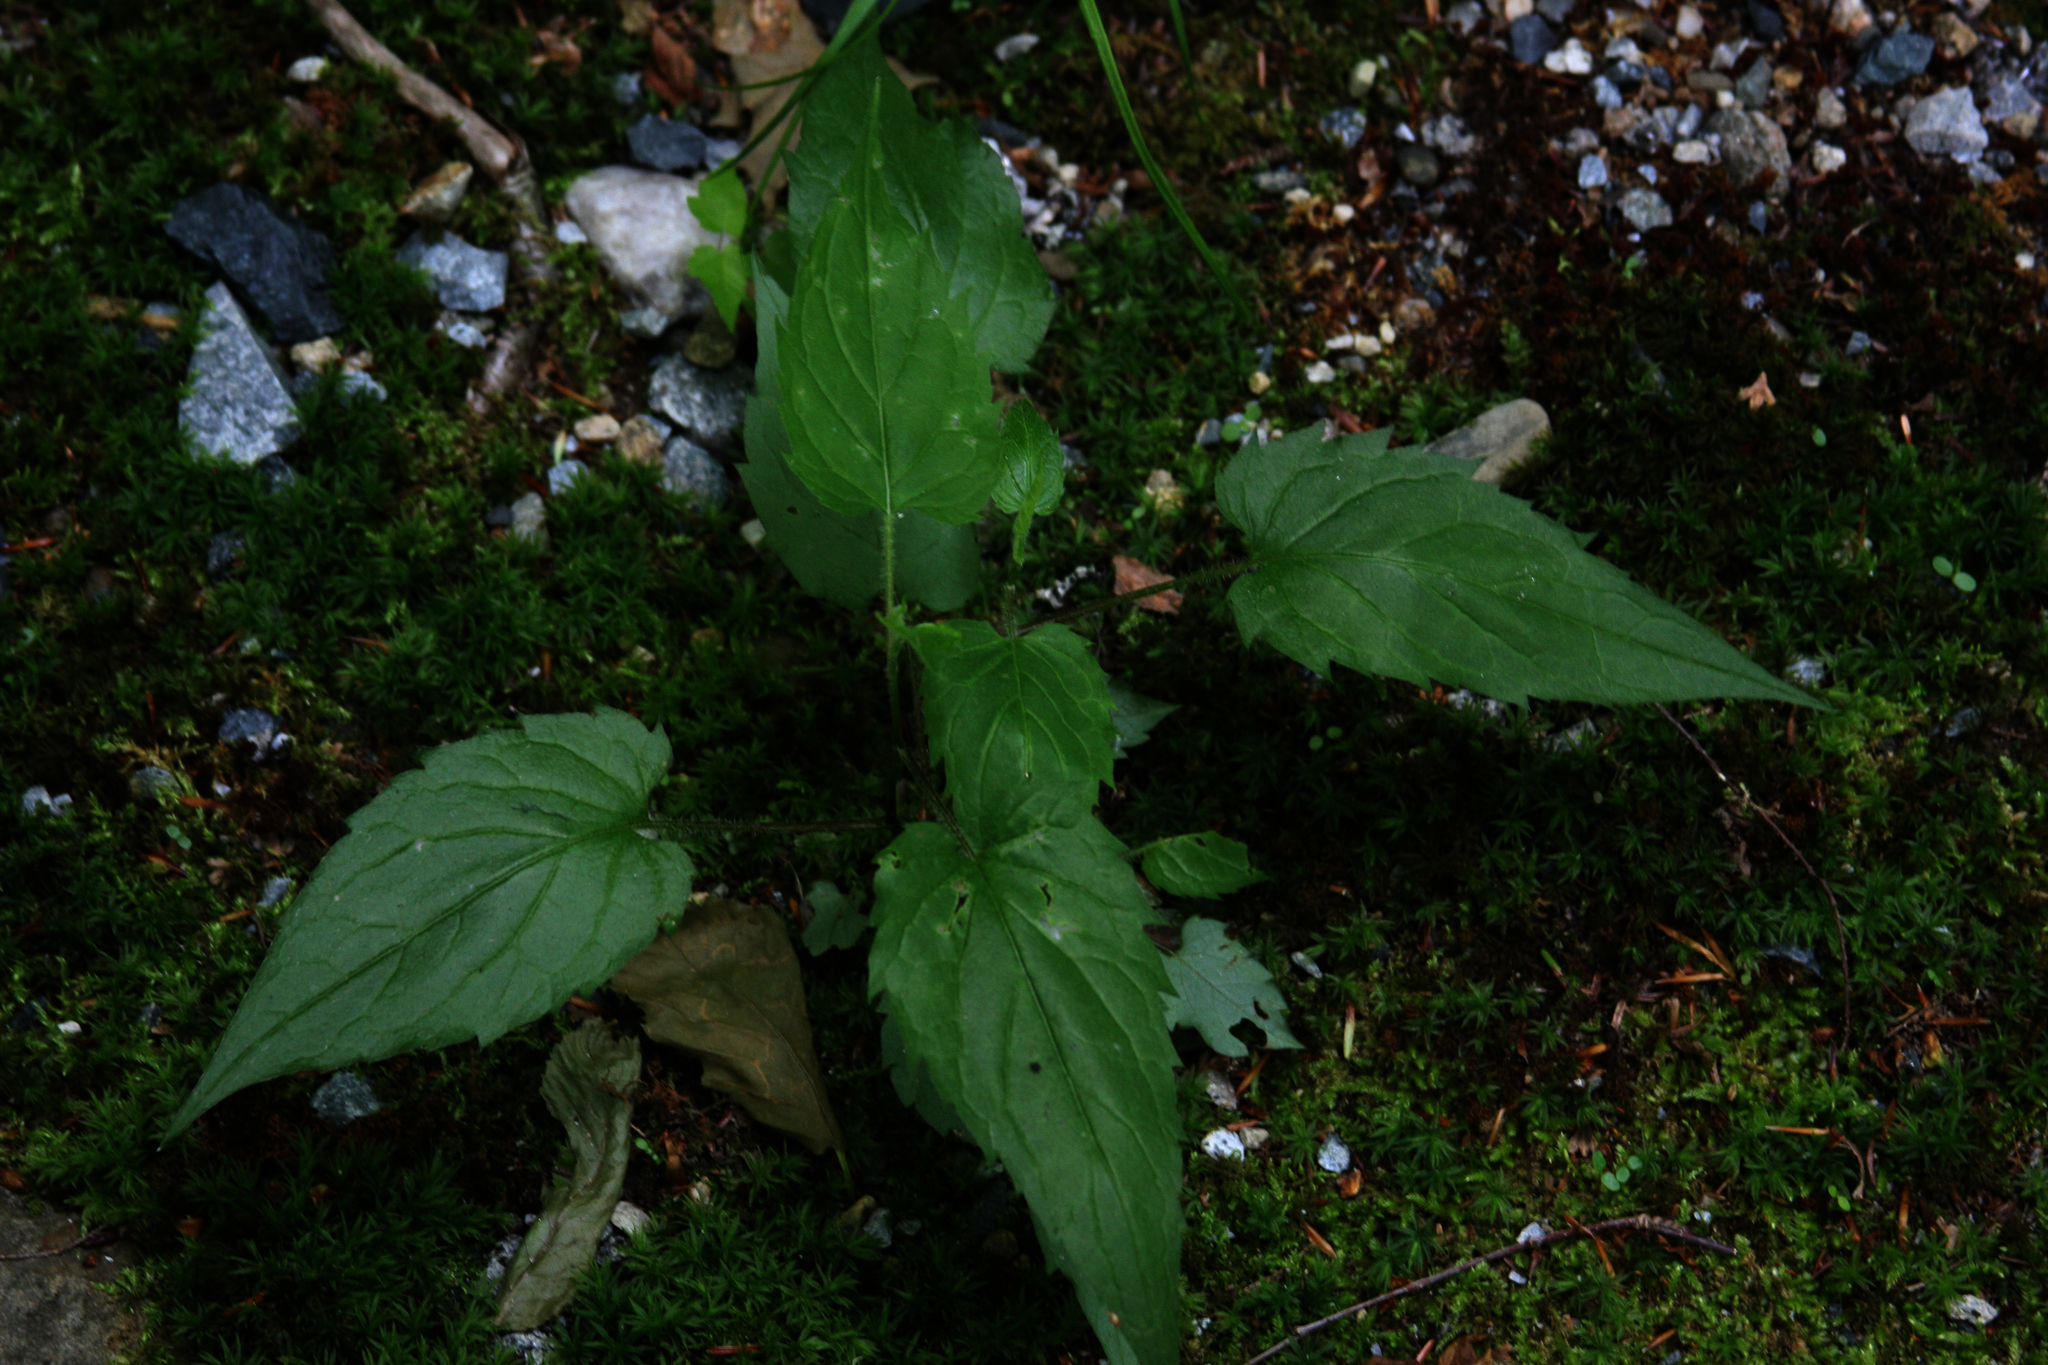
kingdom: Plantae
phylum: Tracheophyta
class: Magnoliopsida
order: Asterales
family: Asteraceae
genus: Eurybia
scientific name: Eurybia divaricata
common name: White wood aster
